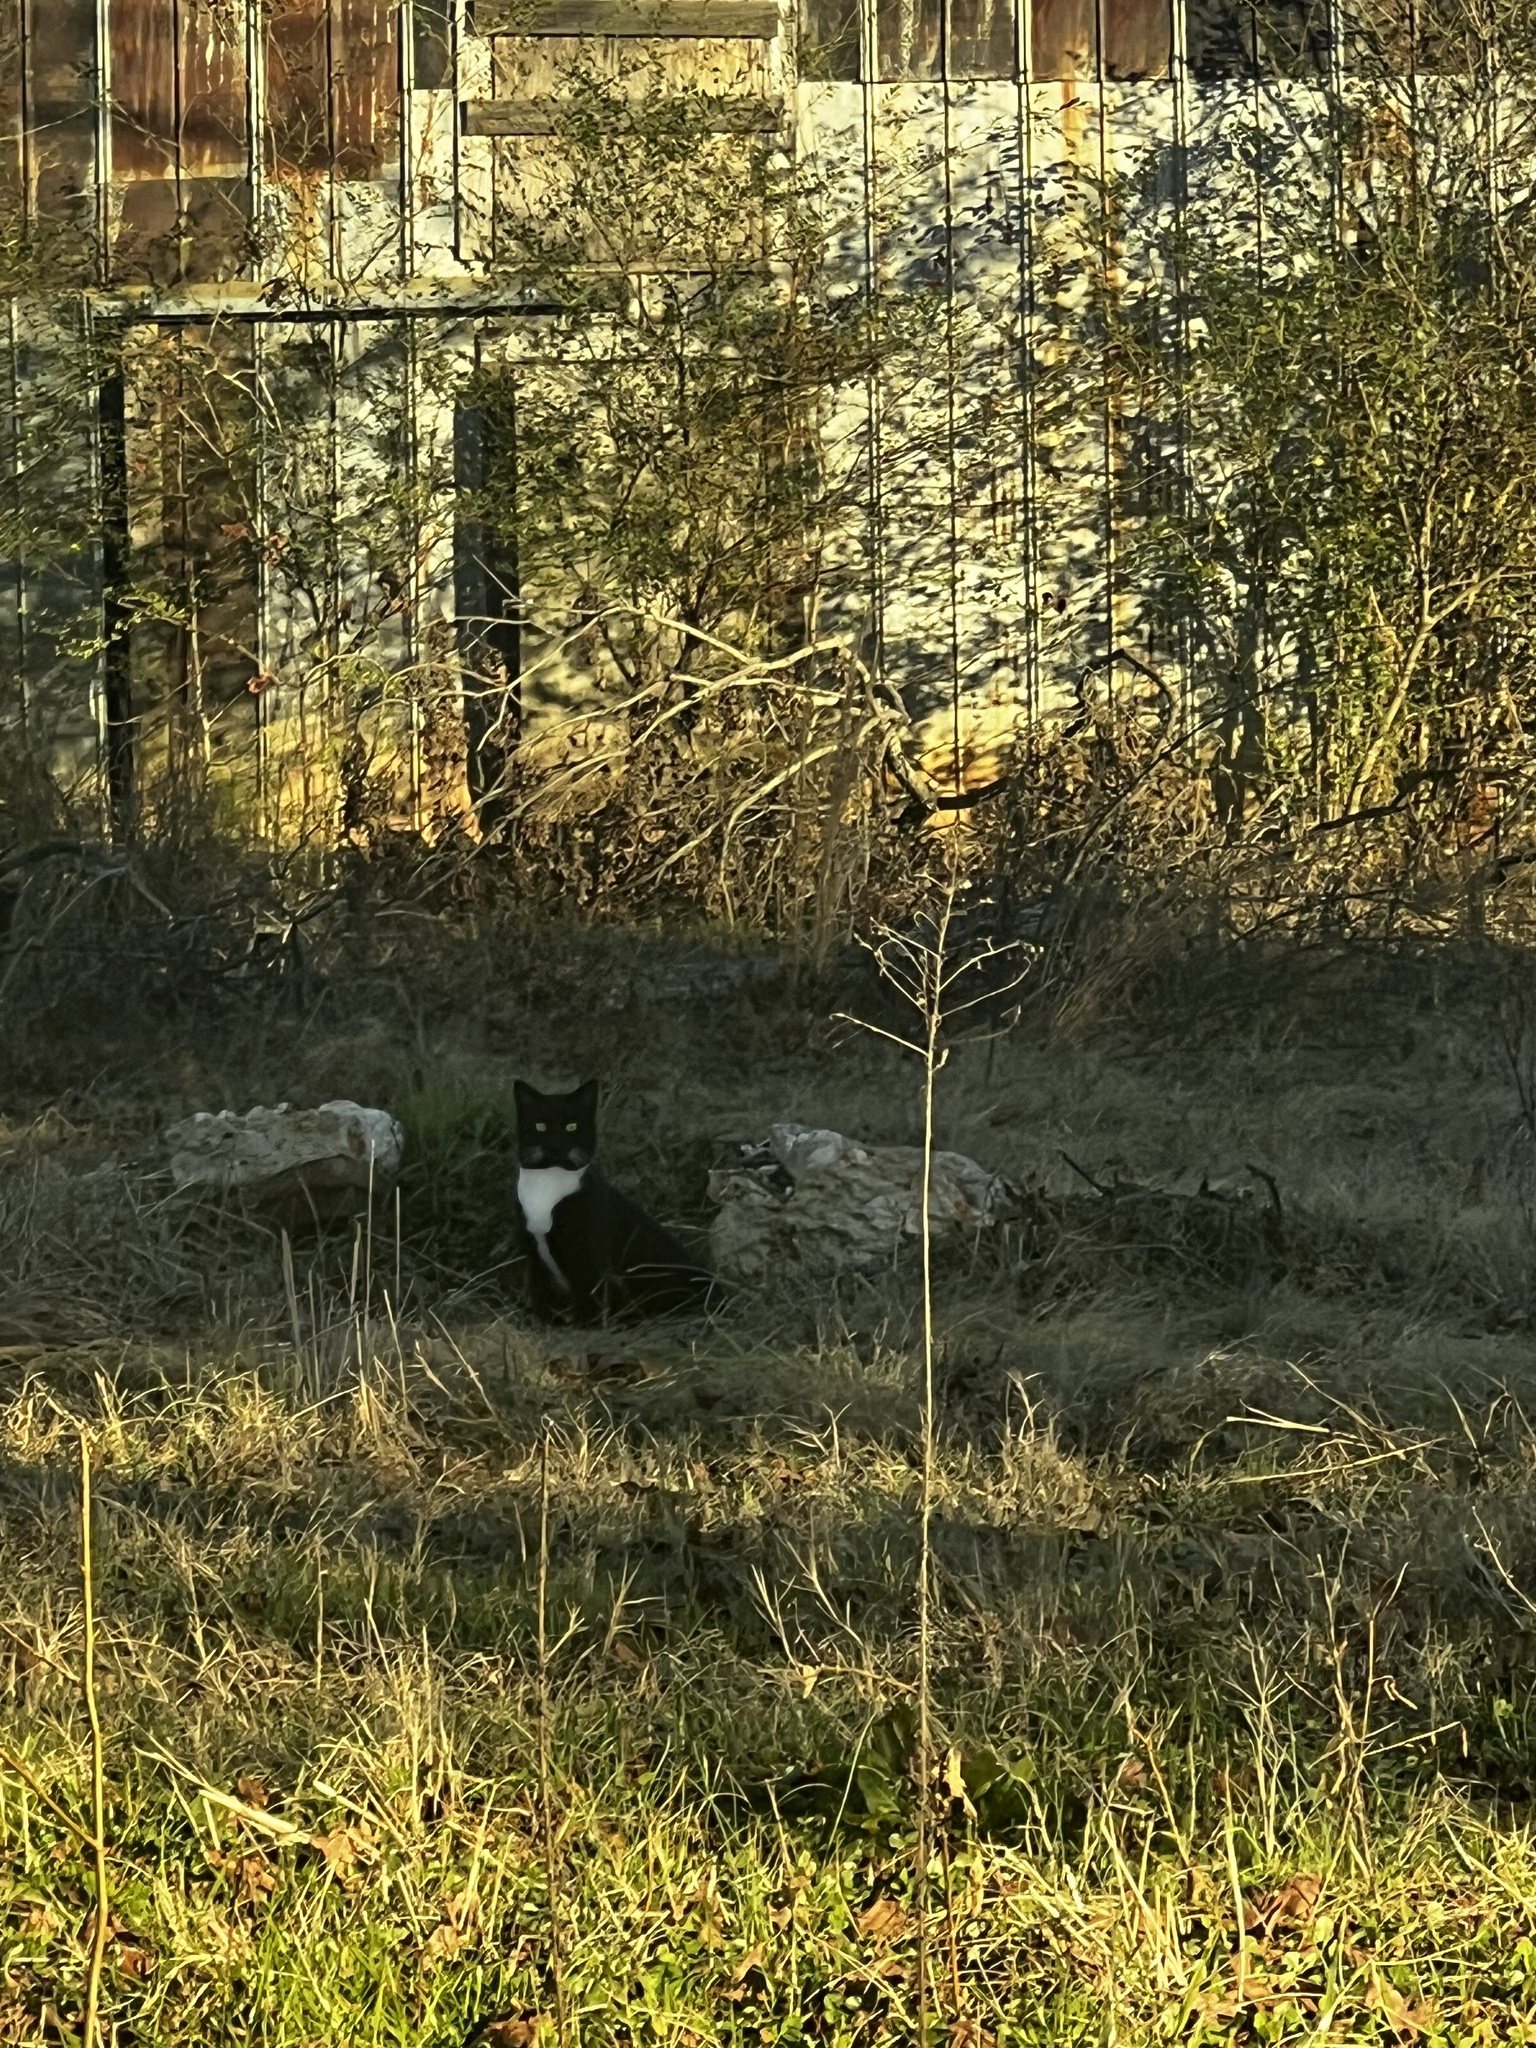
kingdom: Animalia
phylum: Chordata
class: Mammalia
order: Carnivora
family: Felidae
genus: Felis
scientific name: Felis catus
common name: Domestic cat
